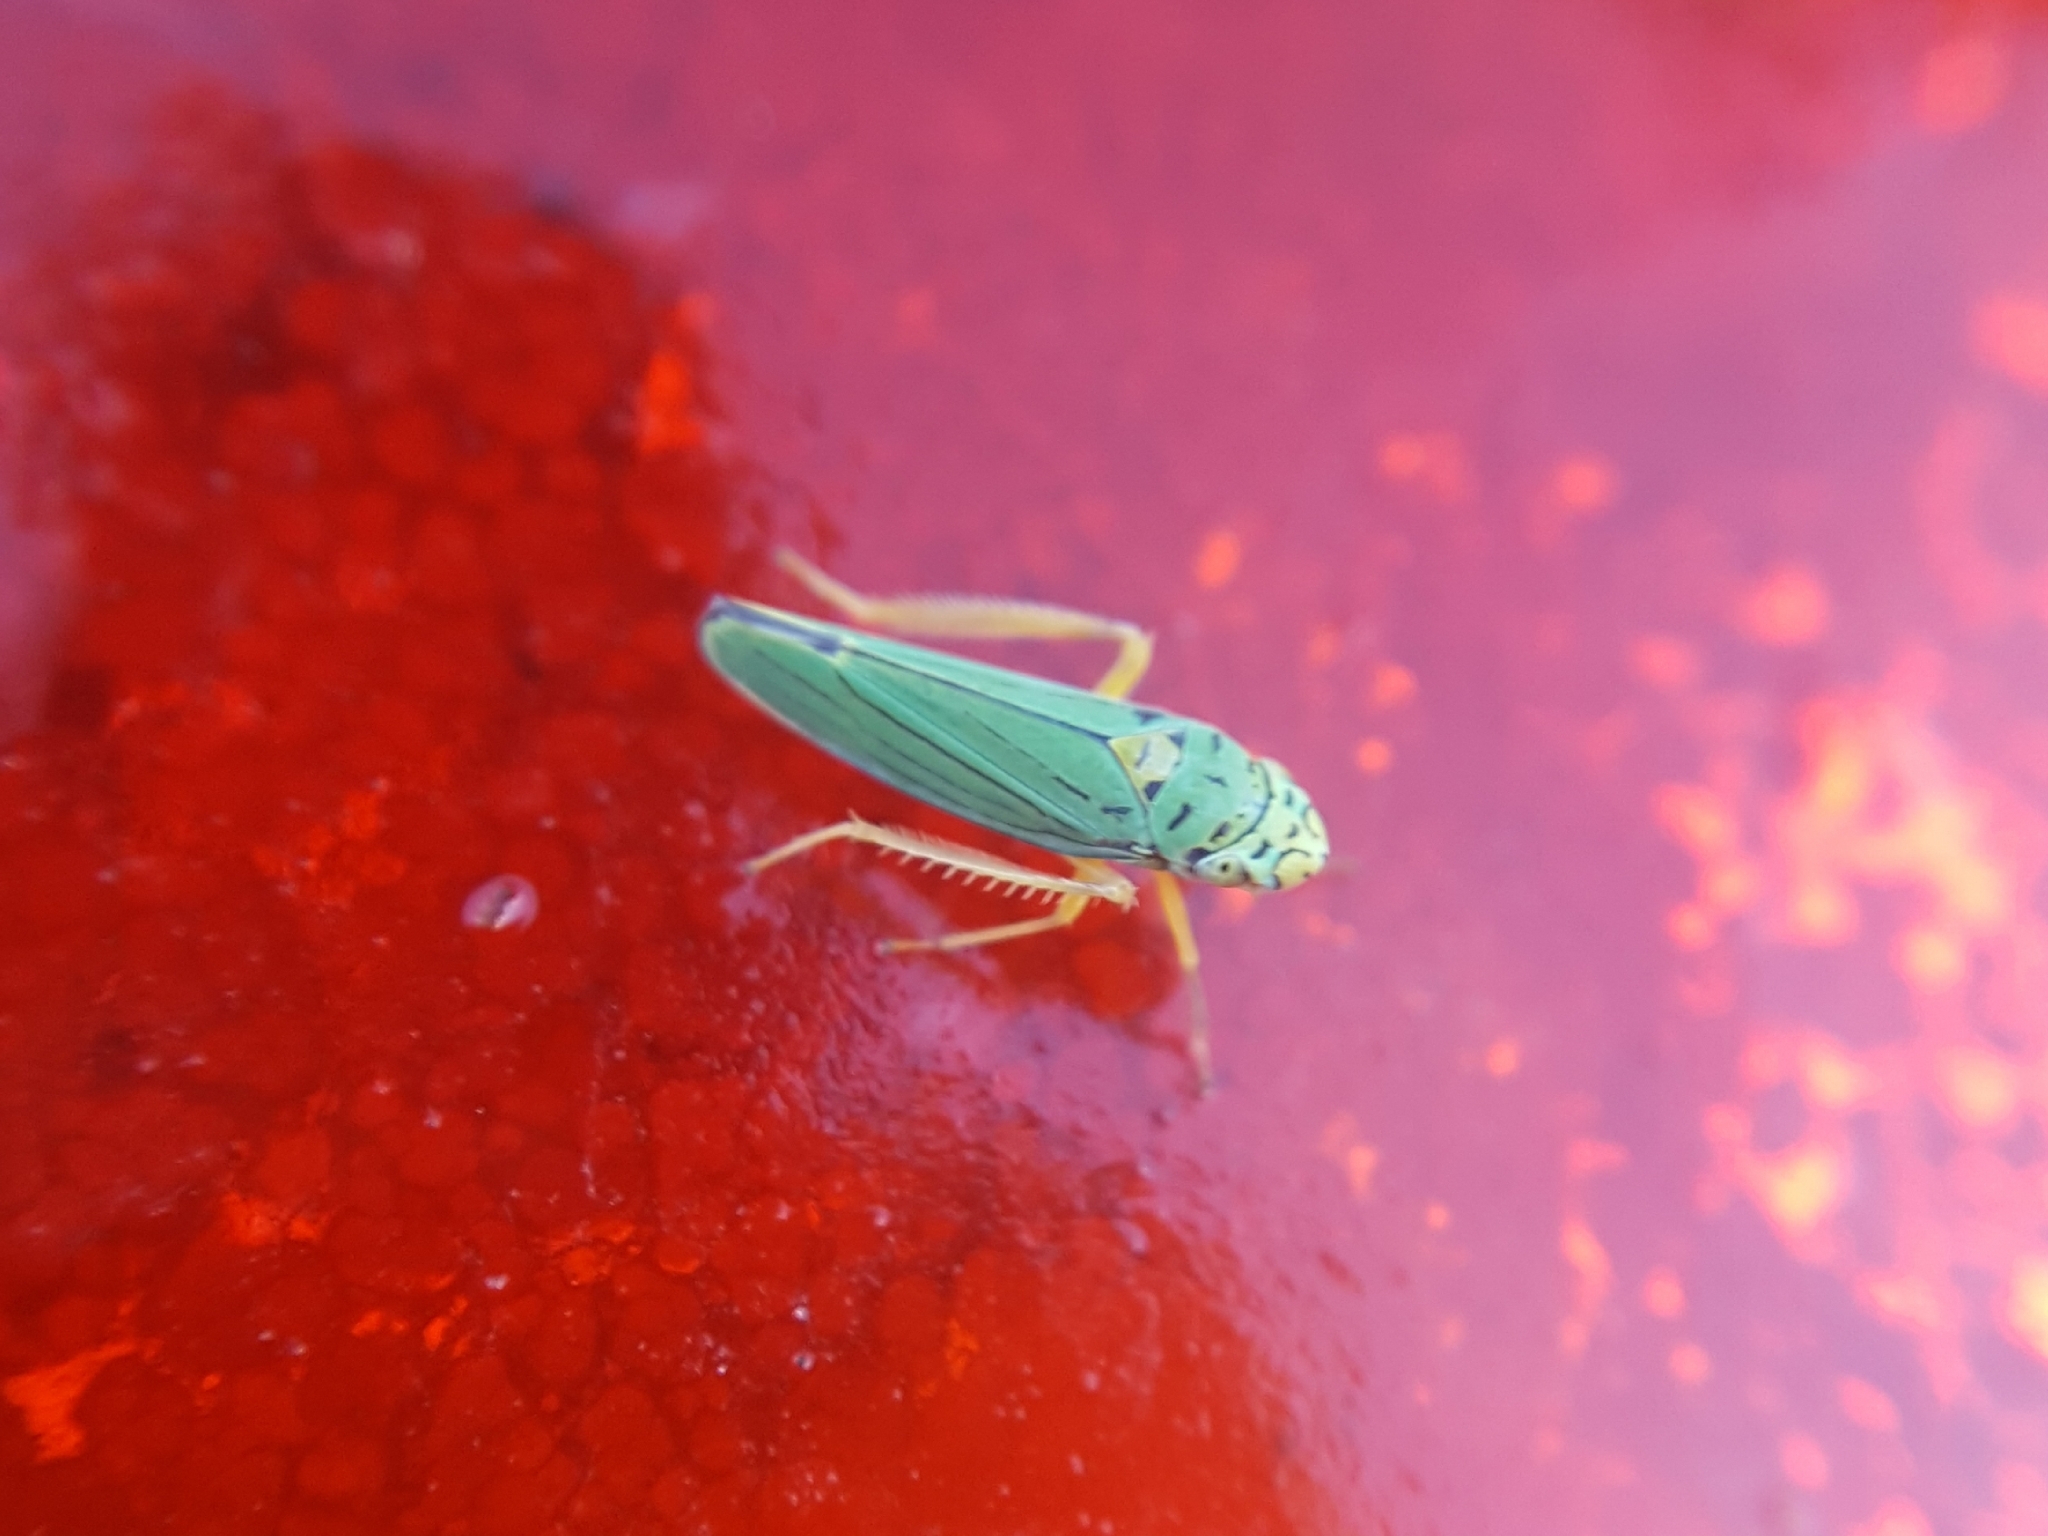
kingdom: Animalia
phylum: Arthropoda
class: Insecta
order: Hemiptera
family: Cicadellidae
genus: Graphocephala
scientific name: Graphocephala atropunctata
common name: Blue-green sharpshooter
